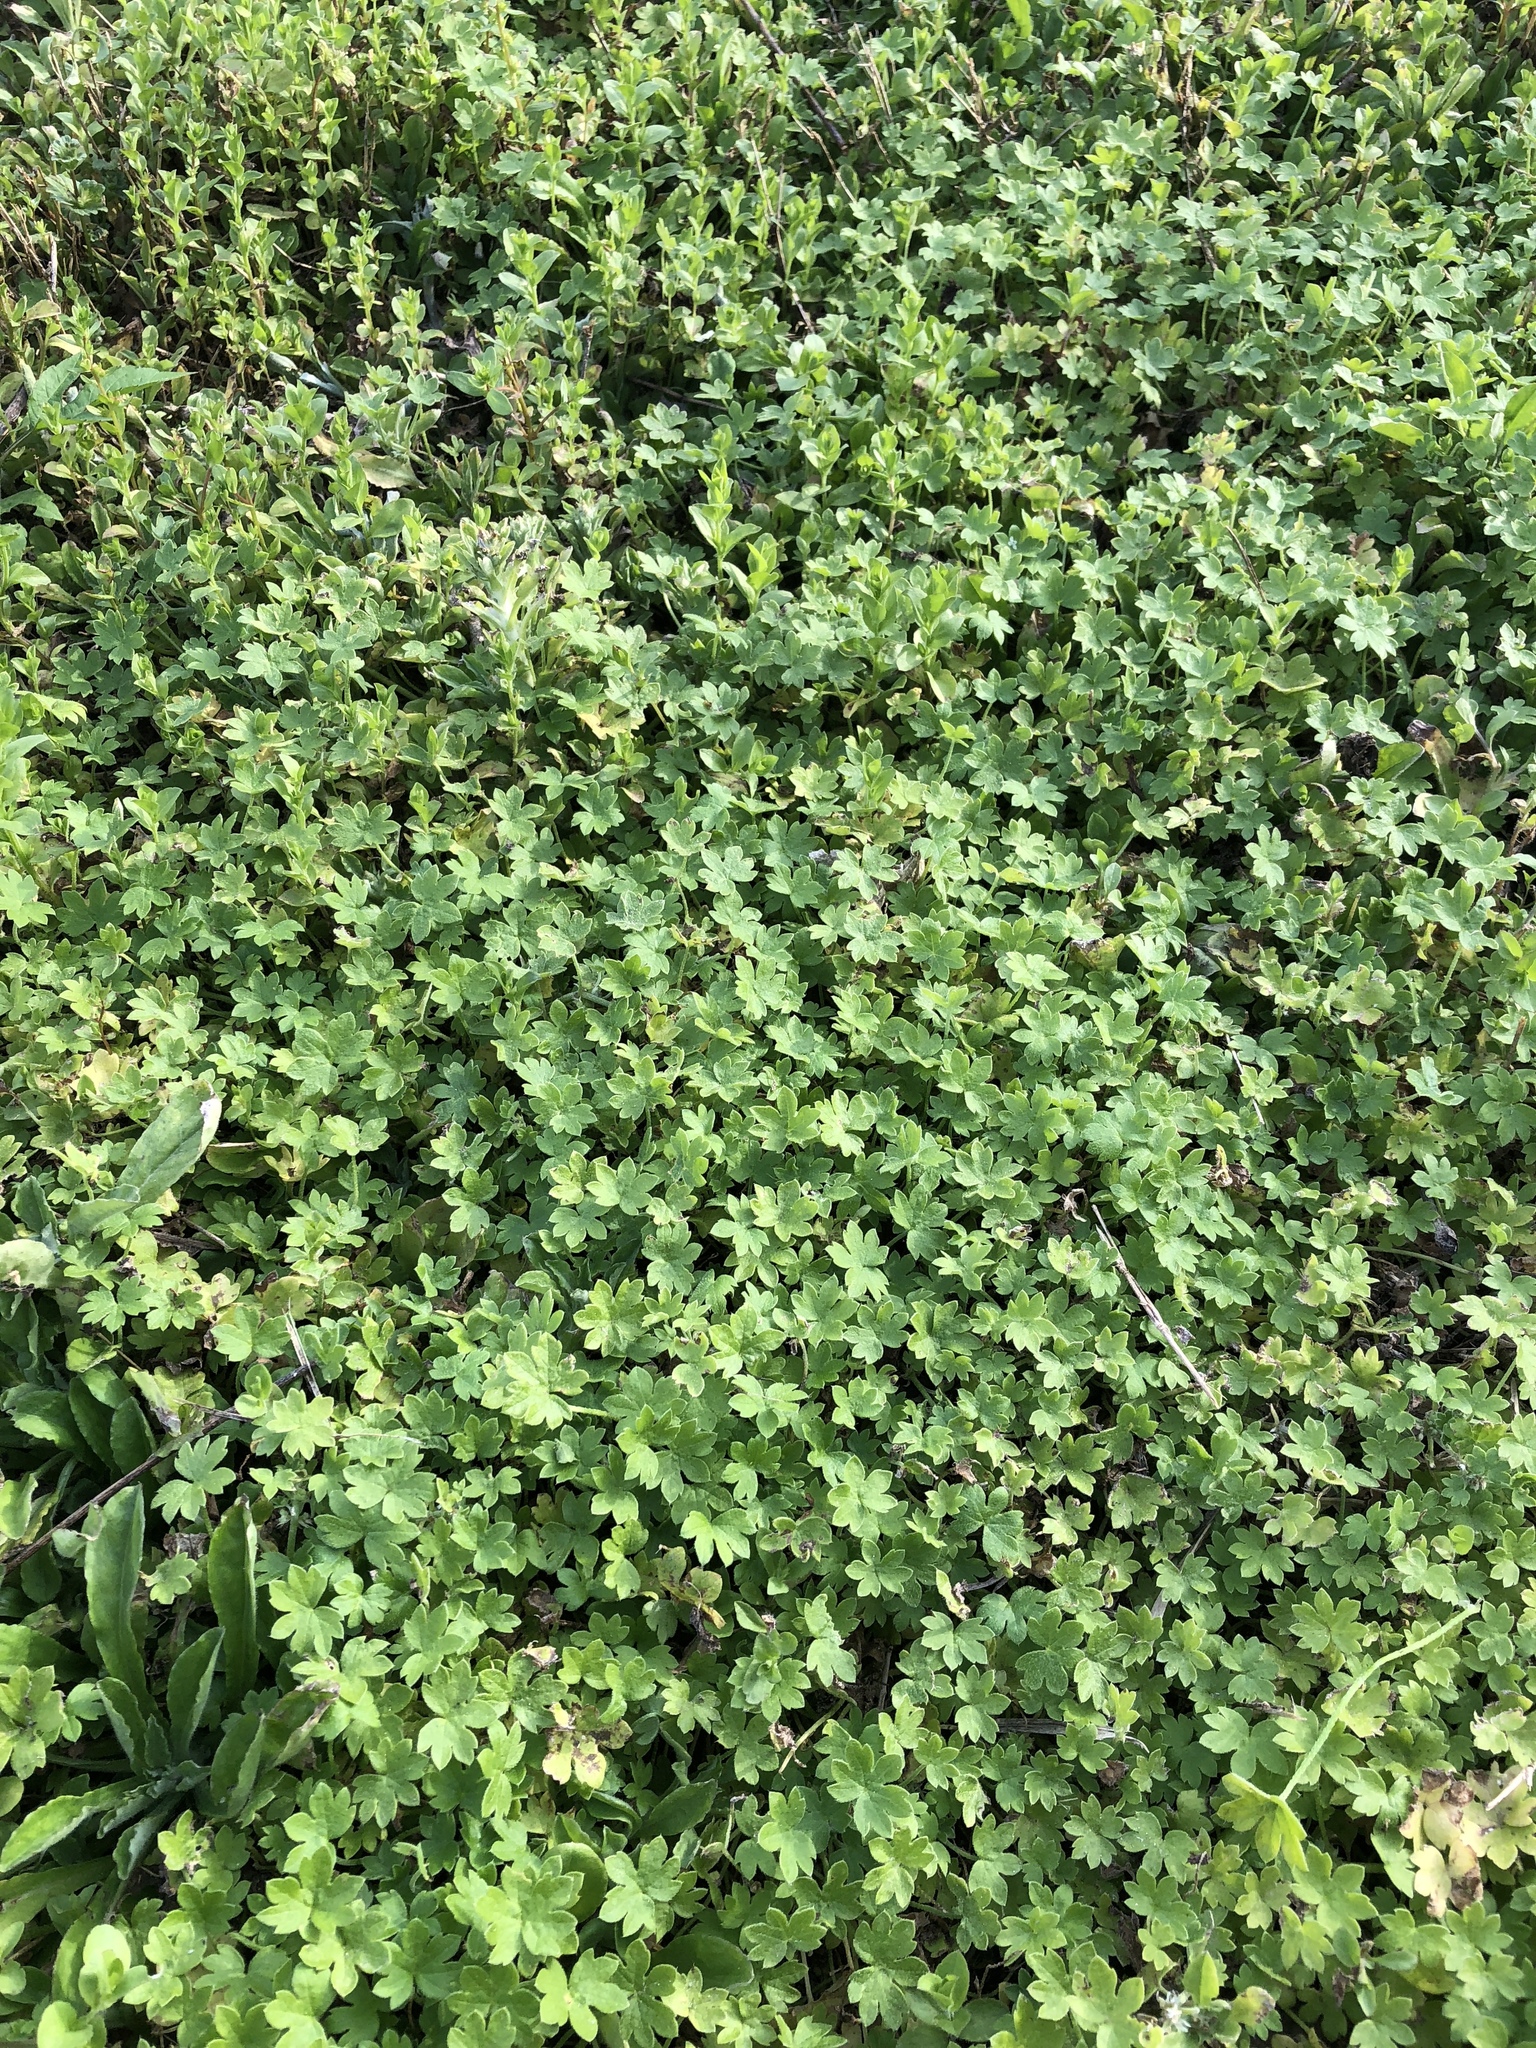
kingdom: Plantae
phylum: Tracheophyta
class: Magnoliopsida
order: Apiales
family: Apiaceae
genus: Bowlesia
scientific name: Bowlesia incana
